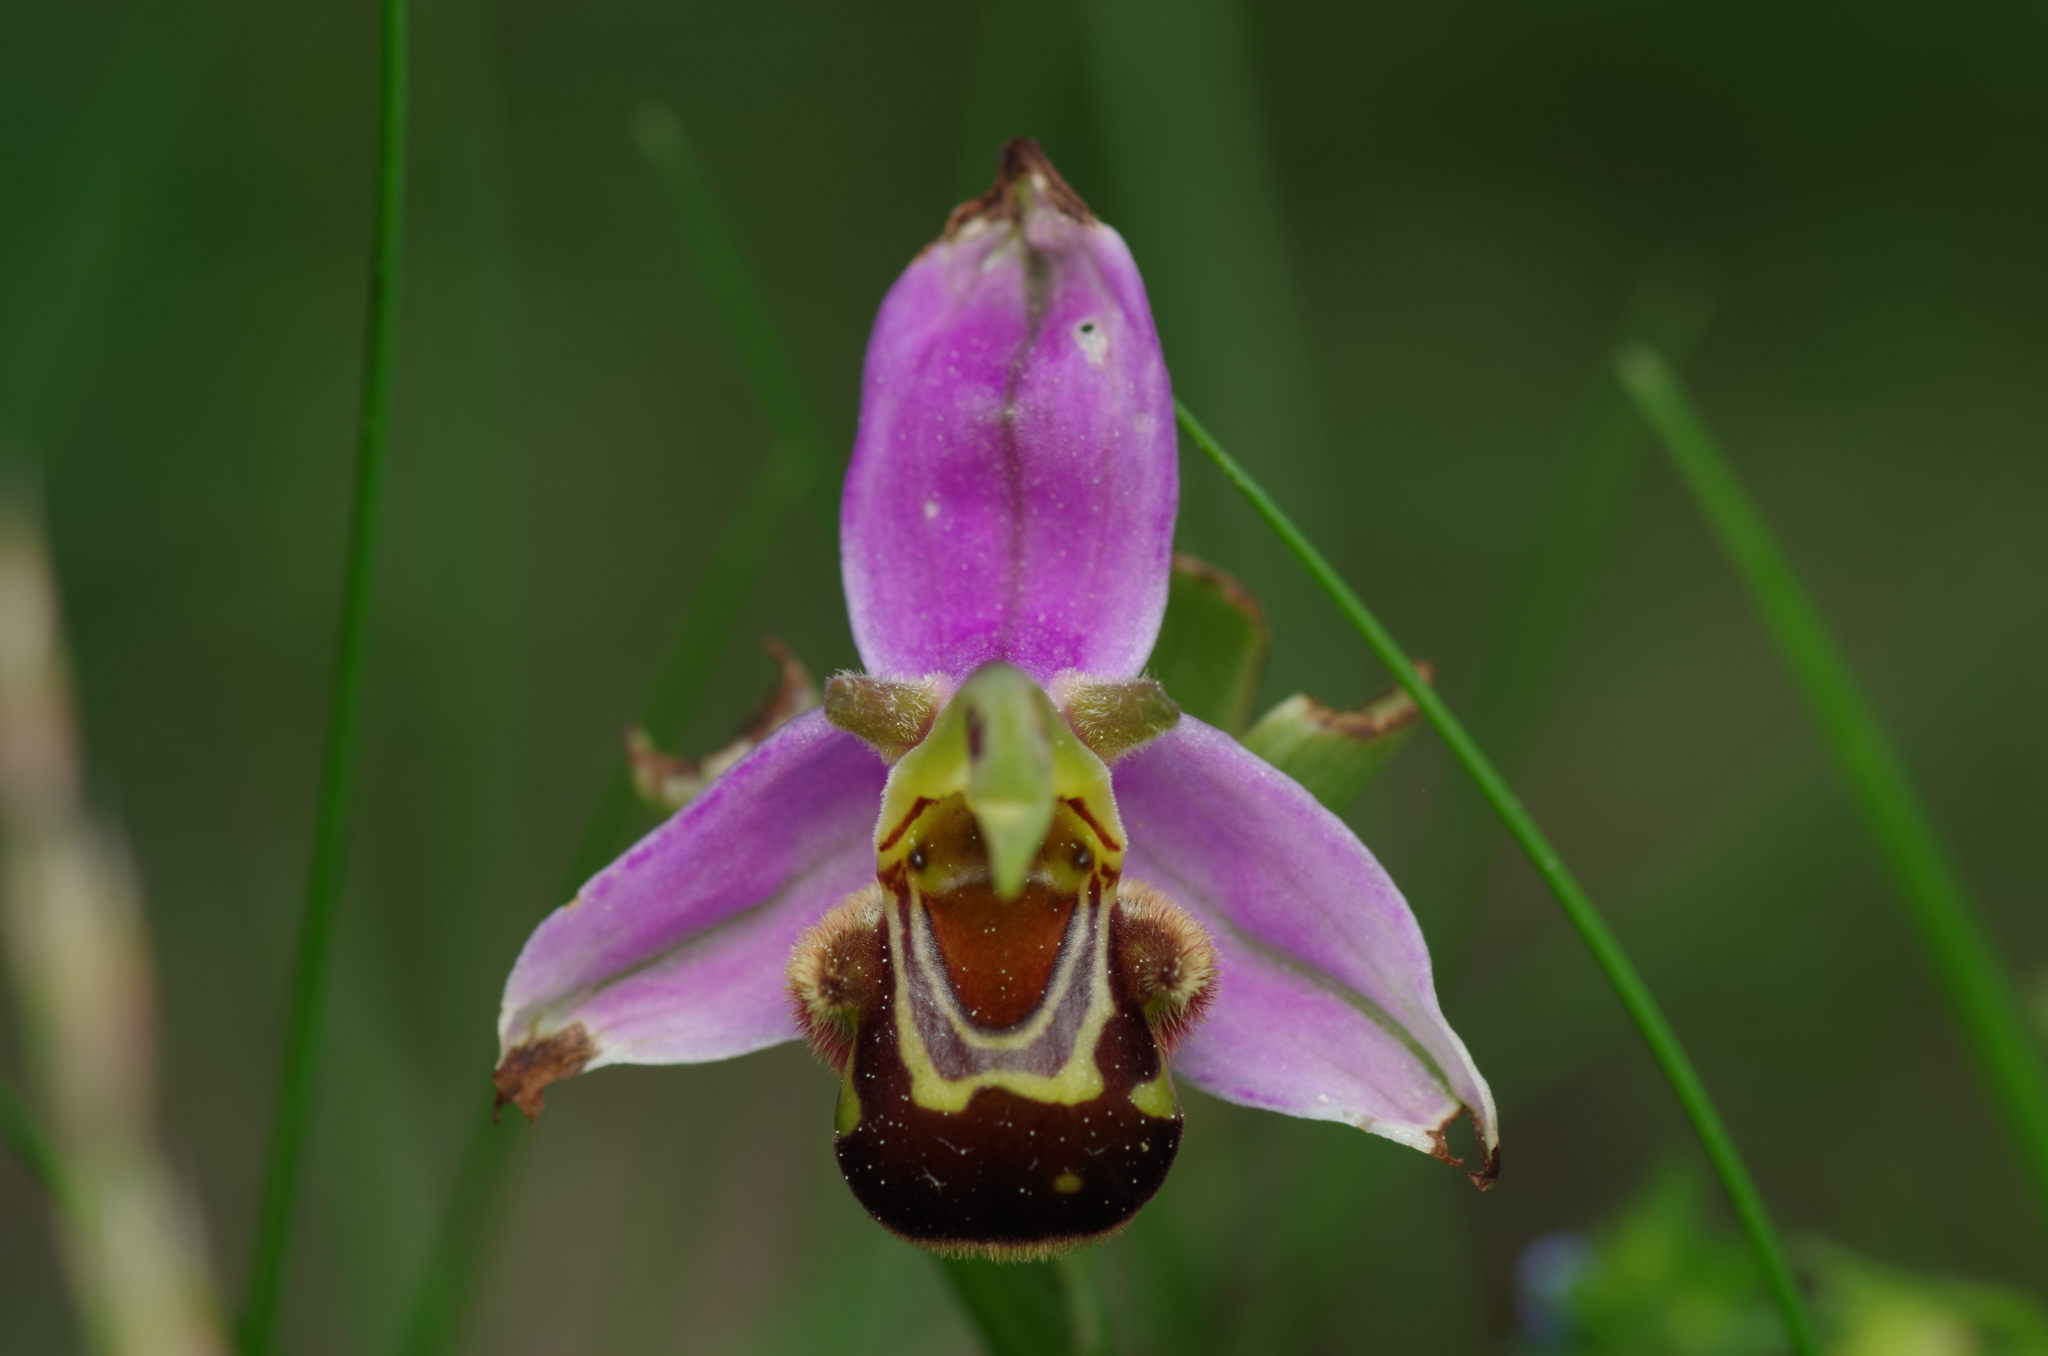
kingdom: Plantae
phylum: Tracheophyta
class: Liliopsida
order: Asparagales
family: Orchidaceae
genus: Ophrys
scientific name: Ophrys apifera
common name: Bee orchid
